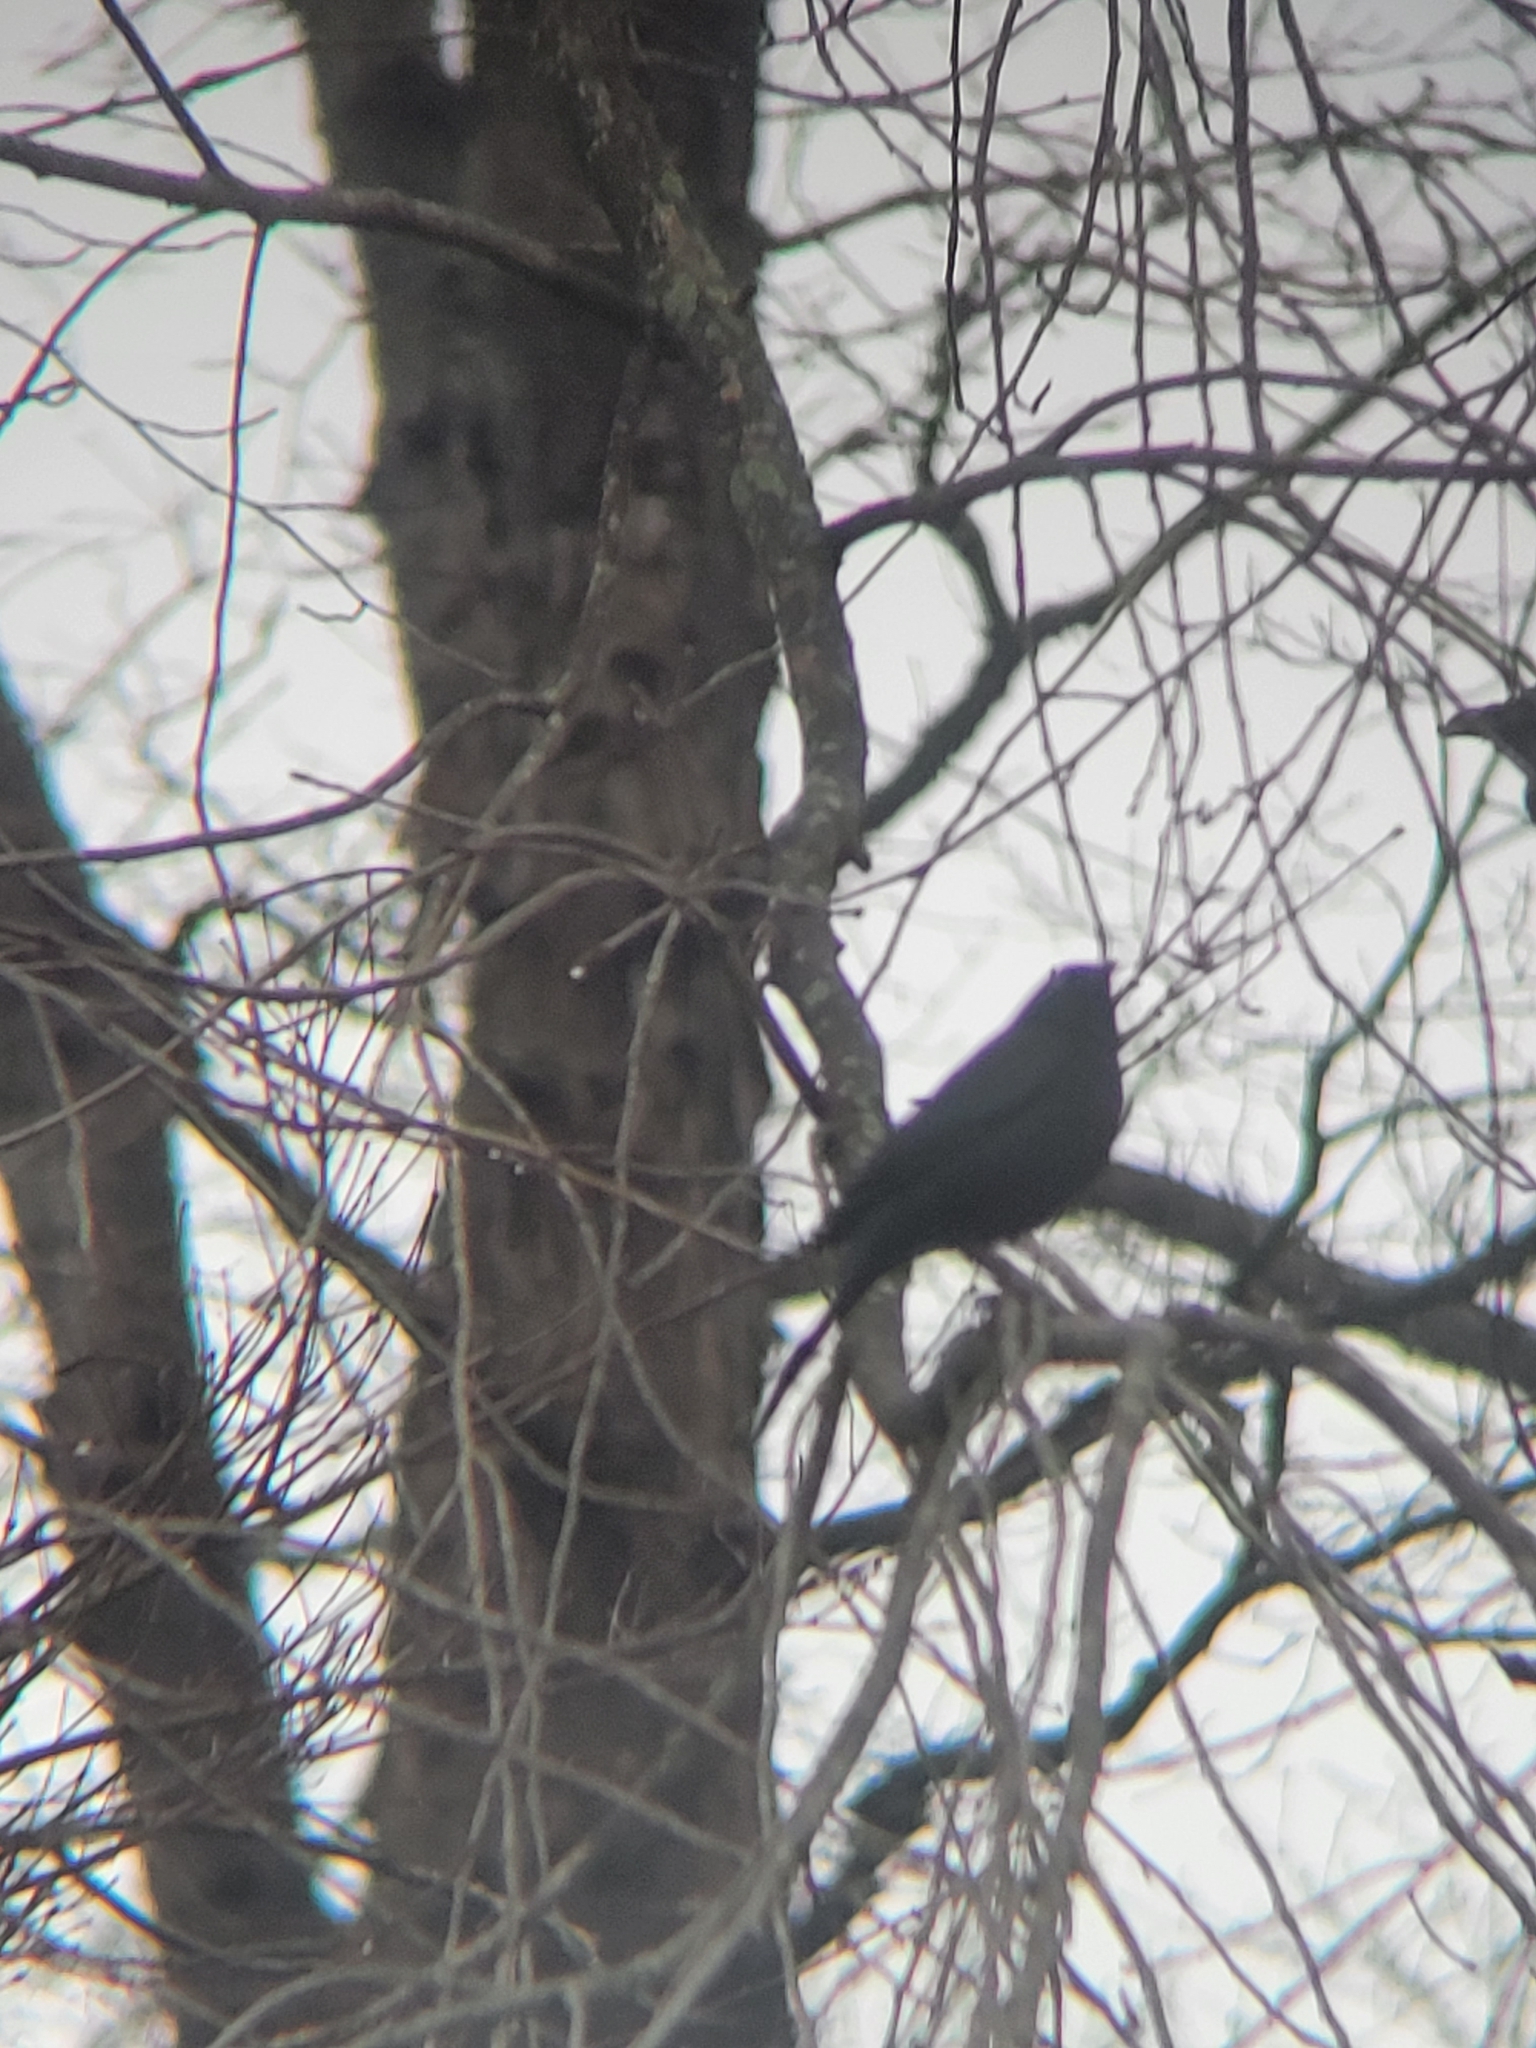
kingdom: Animalia
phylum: Chordata
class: Aves
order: Passeriformes
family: Icteridae
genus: Quiscalus
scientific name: Quiscalus quiscula
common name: Common grackle
